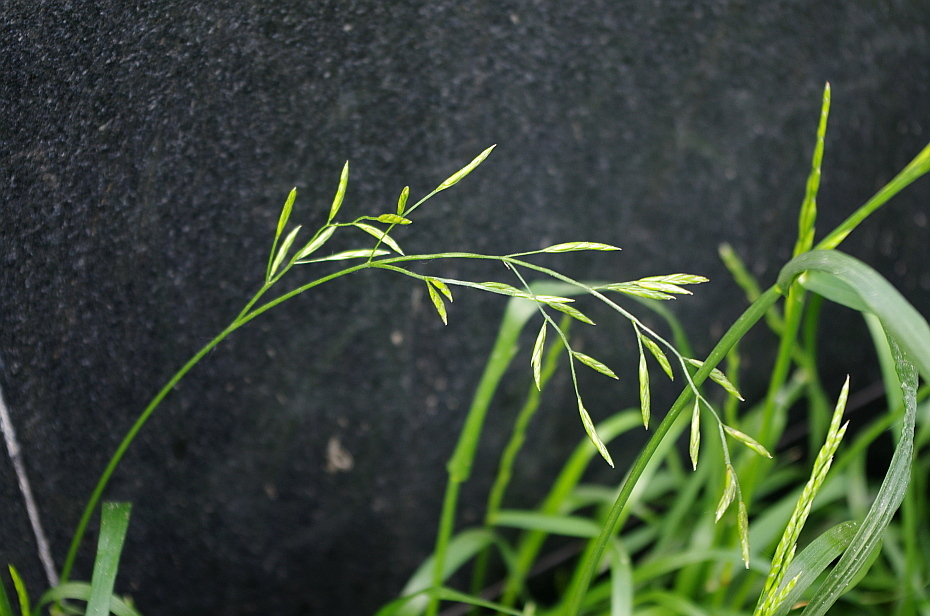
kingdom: Plantae
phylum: Tracheophyta
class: Liliopsida
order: Poales
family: Poaceae
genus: Bromus
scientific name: Bromus inermis
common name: Smooth brome
